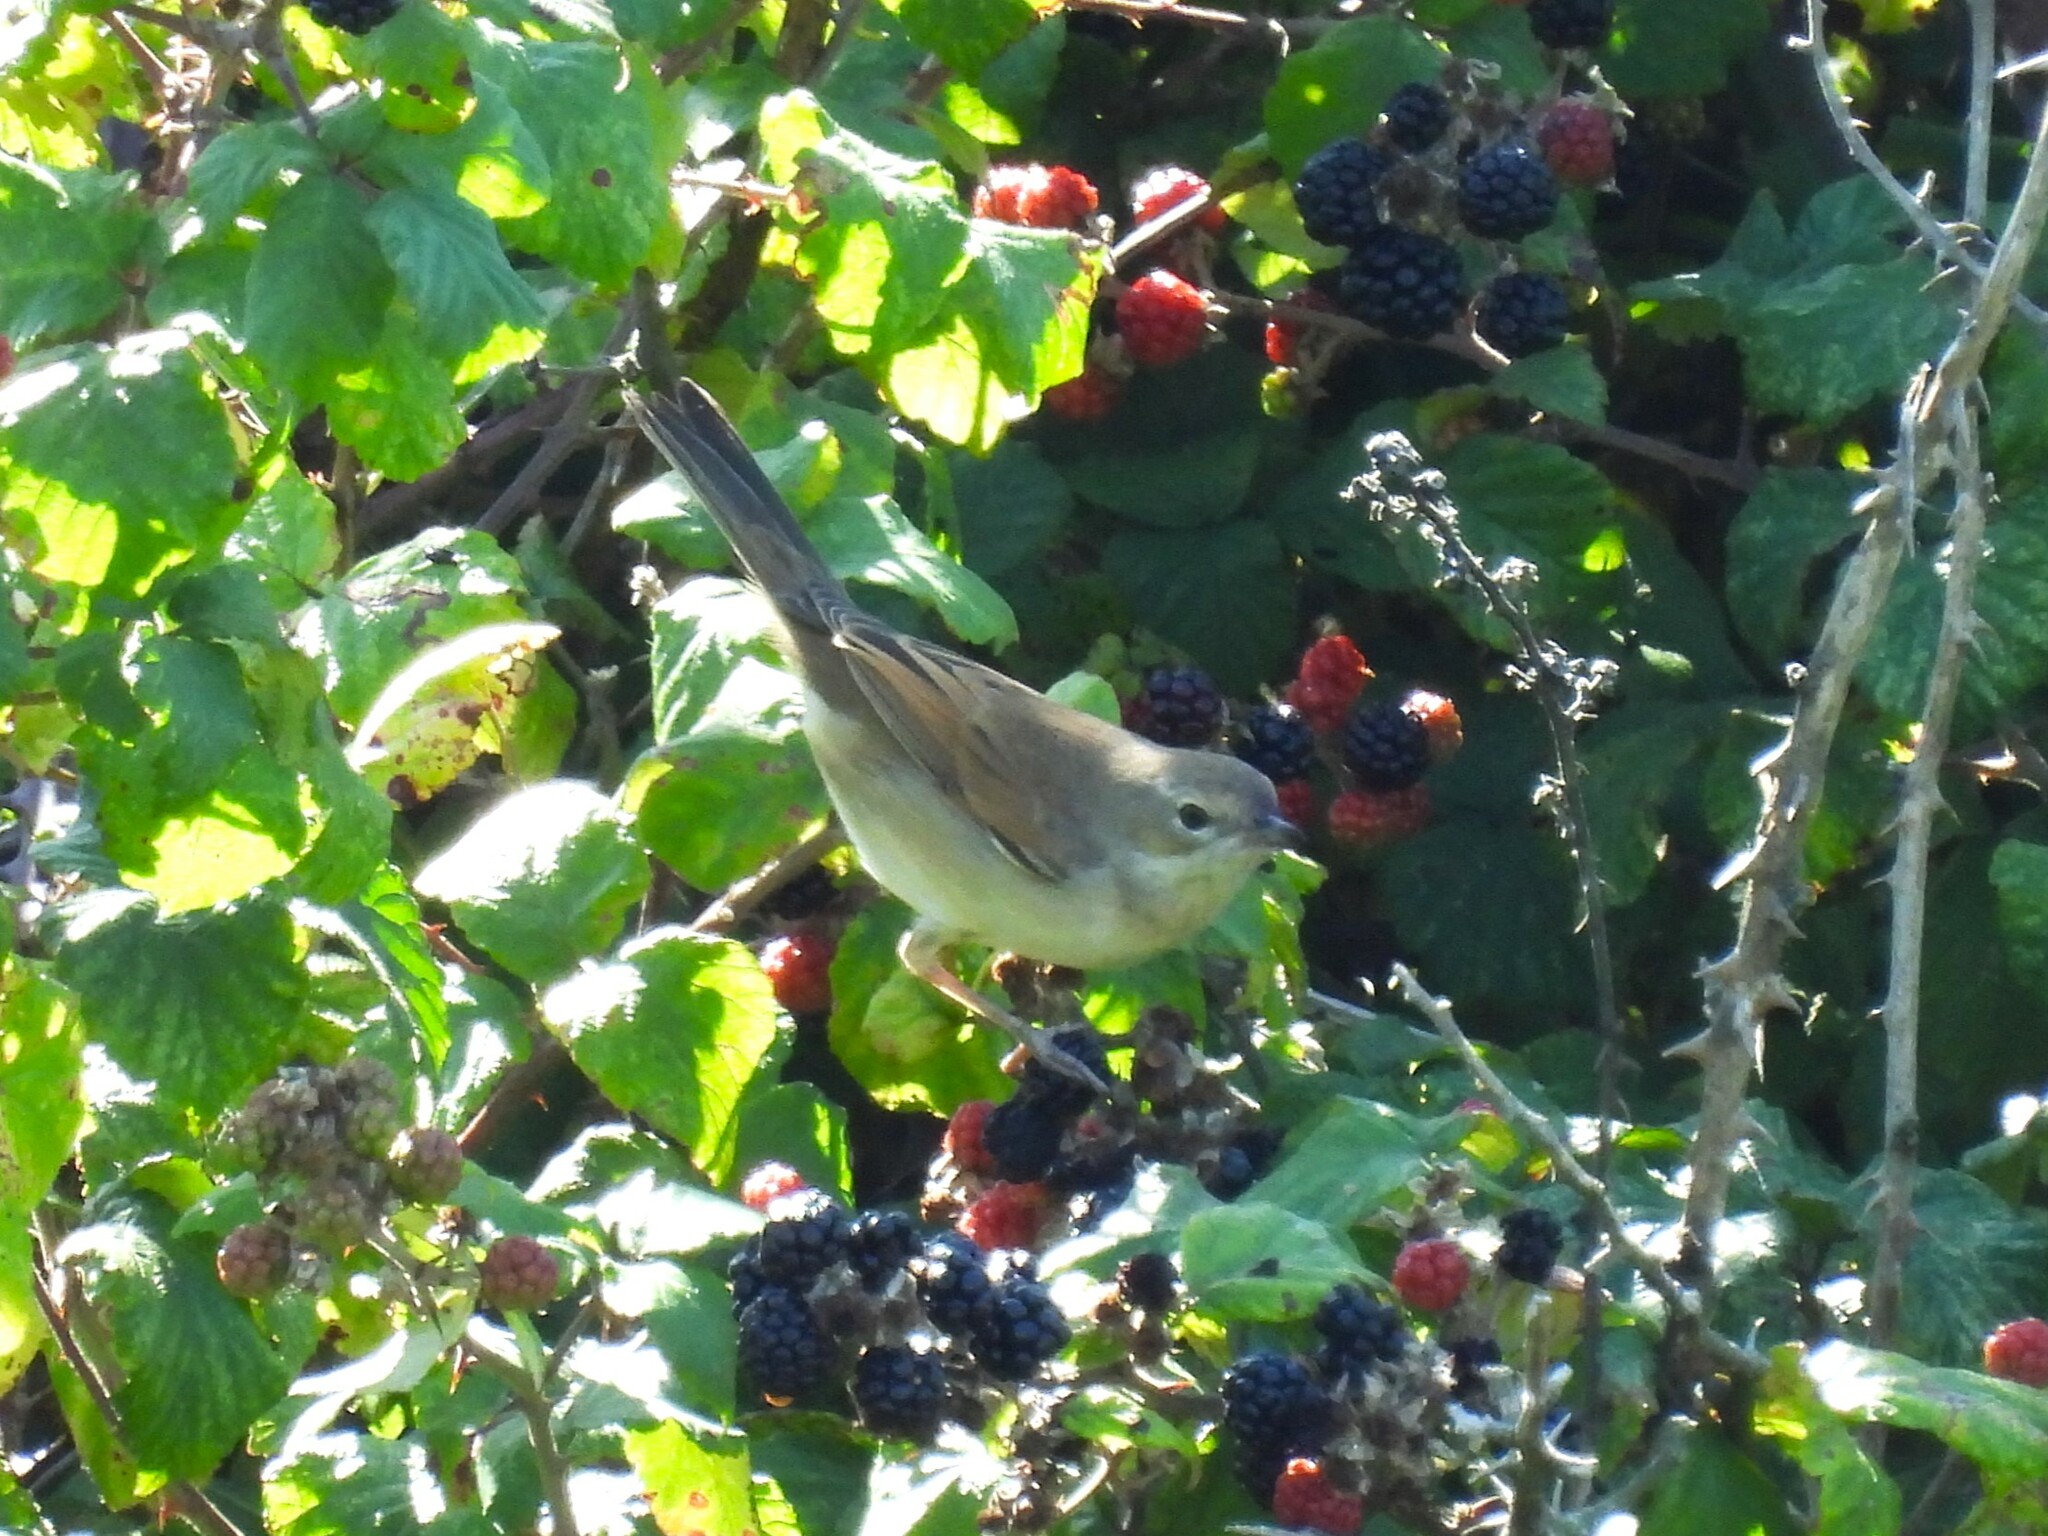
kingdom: Animalia
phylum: Chordata
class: Aves
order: Passeriformes
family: Sylviidae
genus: Sylvia
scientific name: Sylvia communis
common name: Common whitethroat
